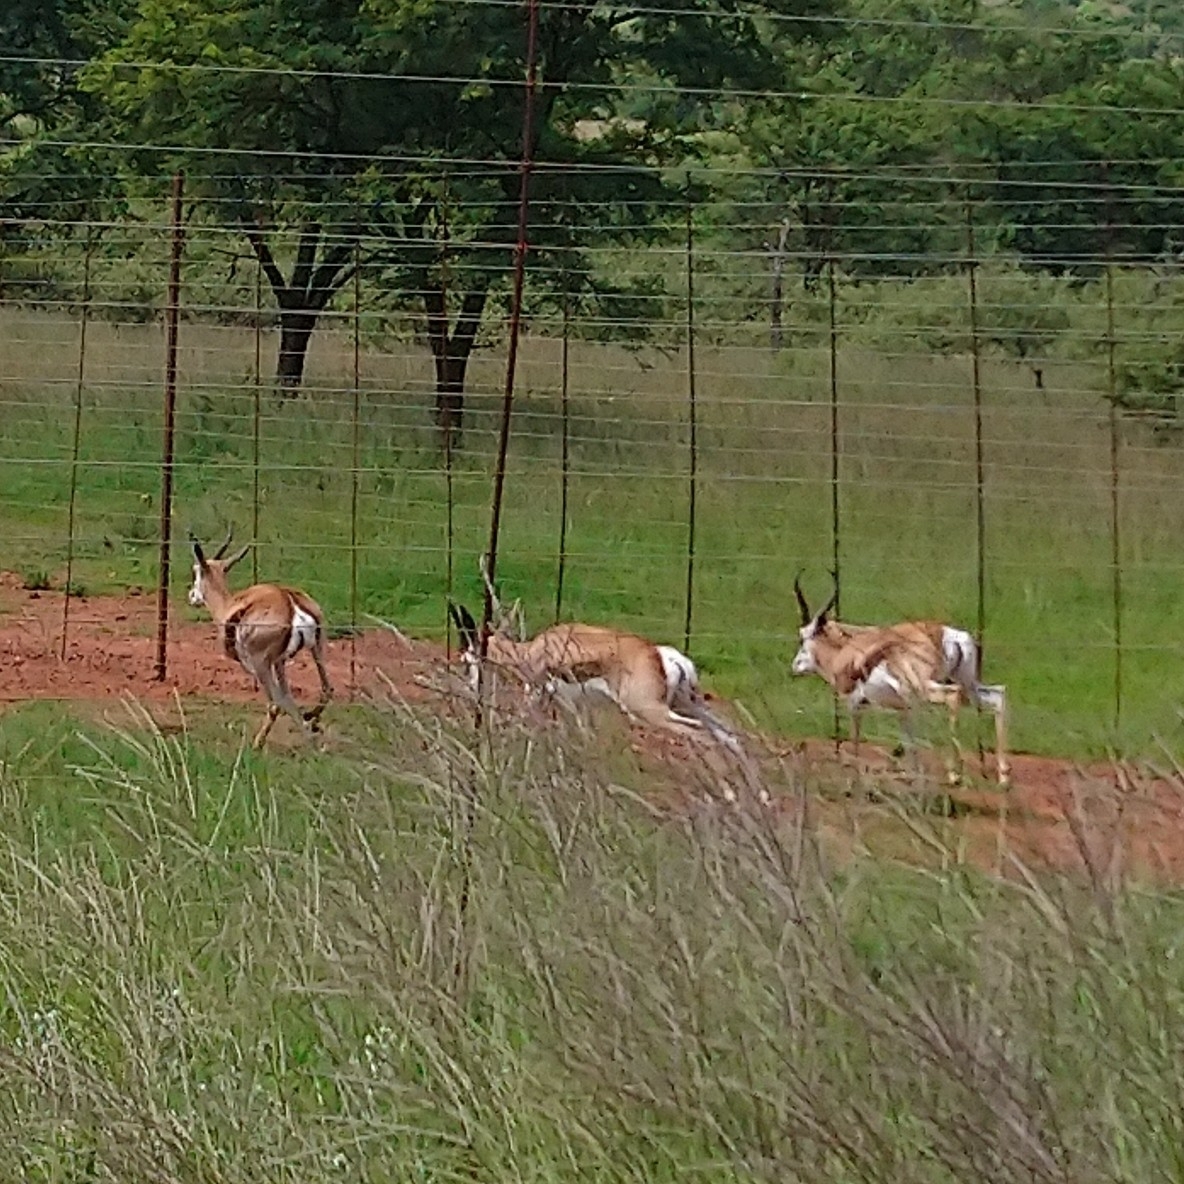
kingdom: Animalia
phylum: Chordata
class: Mammalia
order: Artiodactyla
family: Bovidae
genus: Antidorcas
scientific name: Antidorcas marsupialis
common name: Springbok
